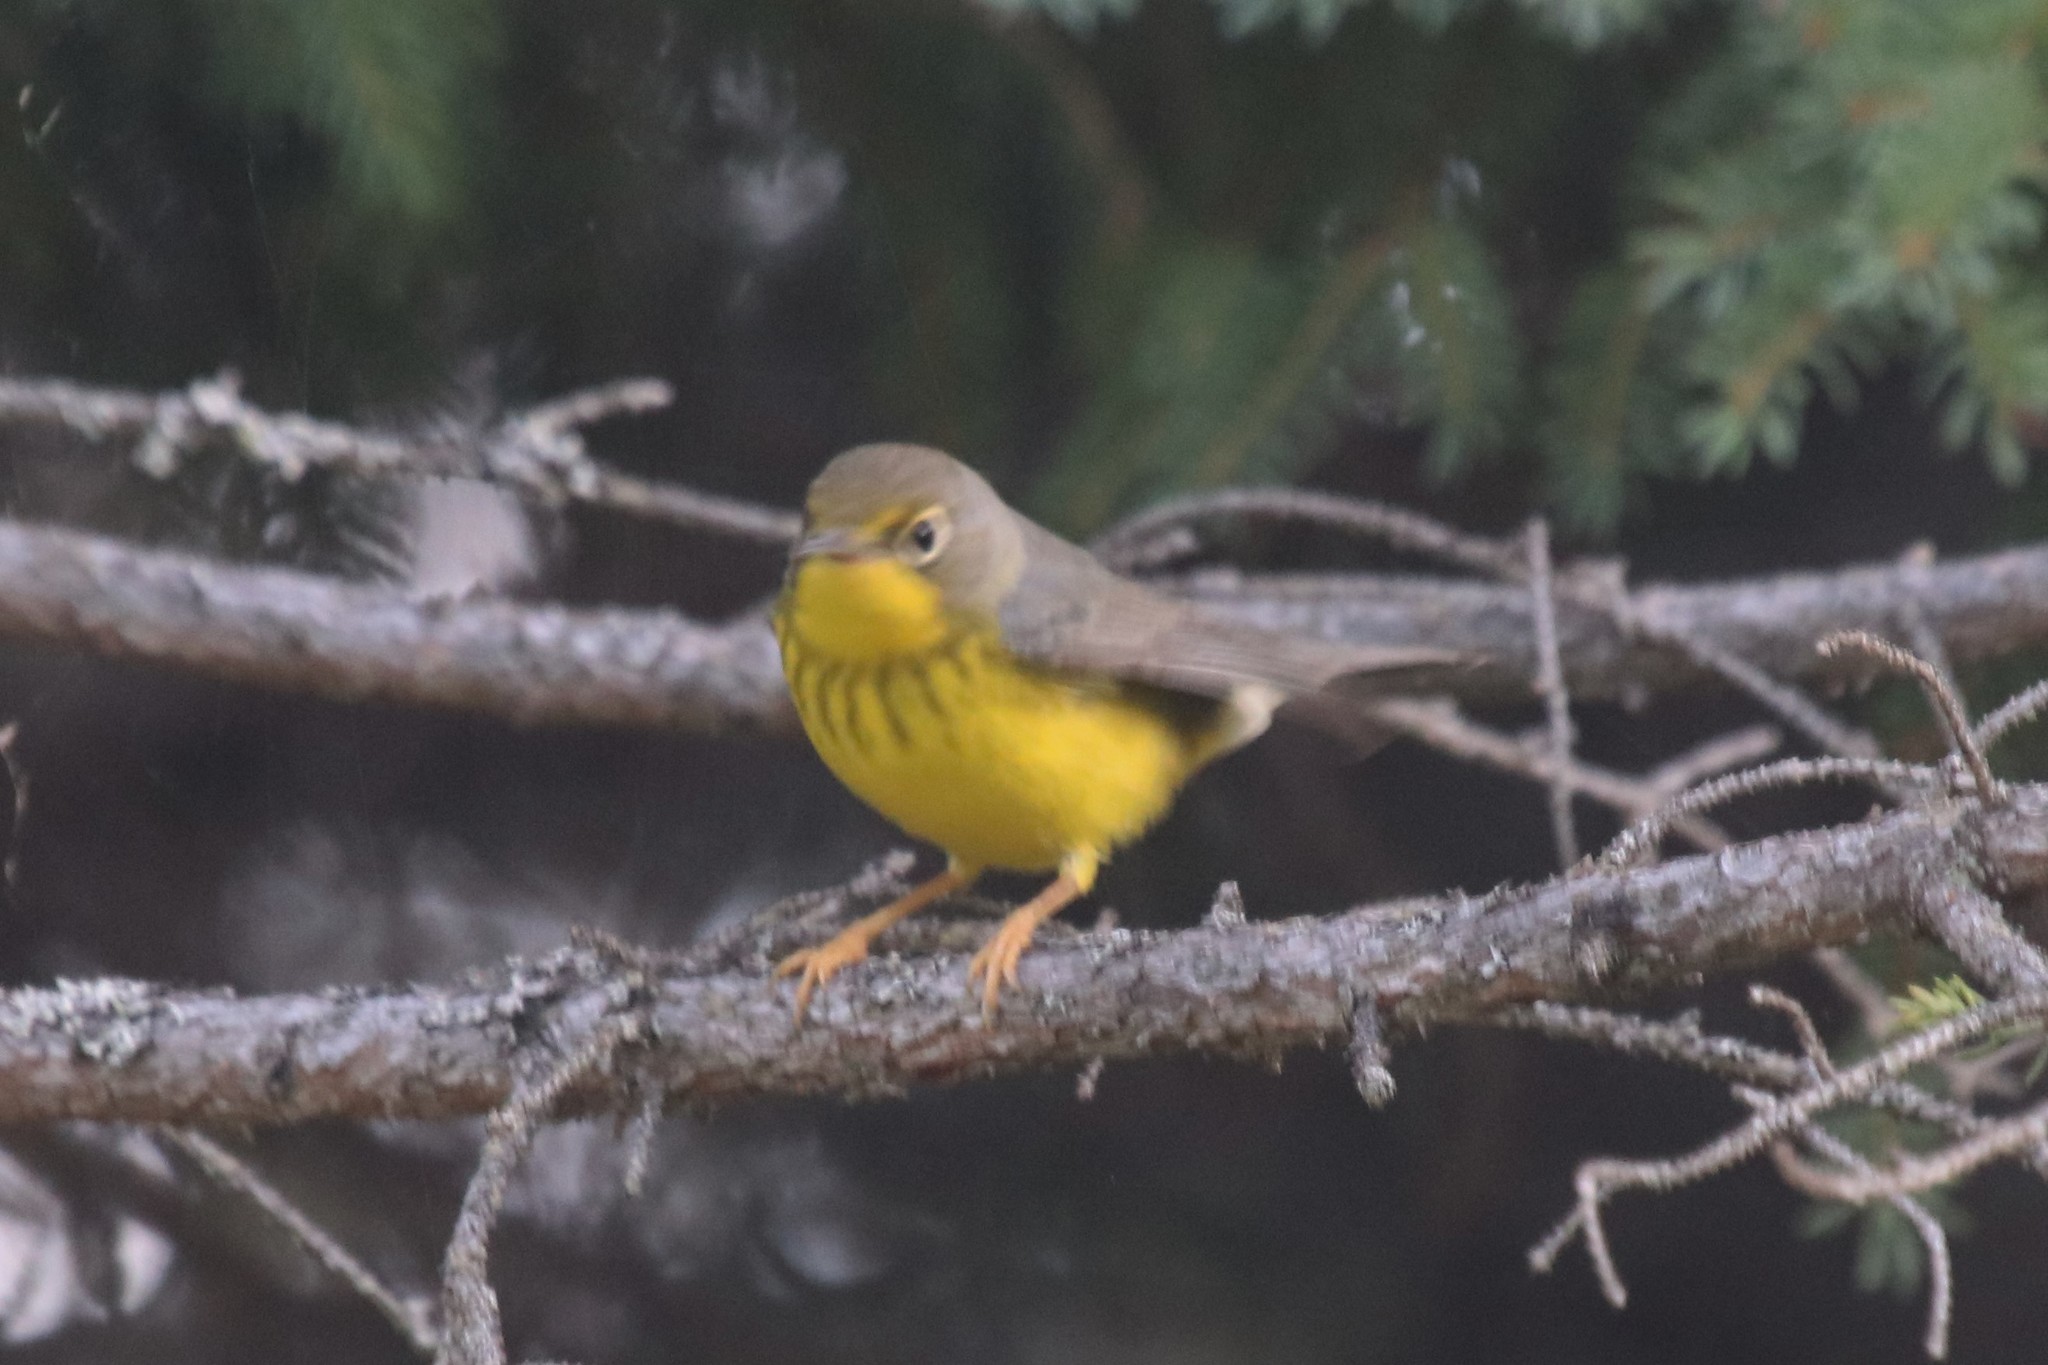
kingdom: Animalia
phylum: Chordata
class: Aves
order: Passeriformes
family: Parulidae
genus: Cardellina
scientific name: Cardellina canadensis
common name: Canada warbler
